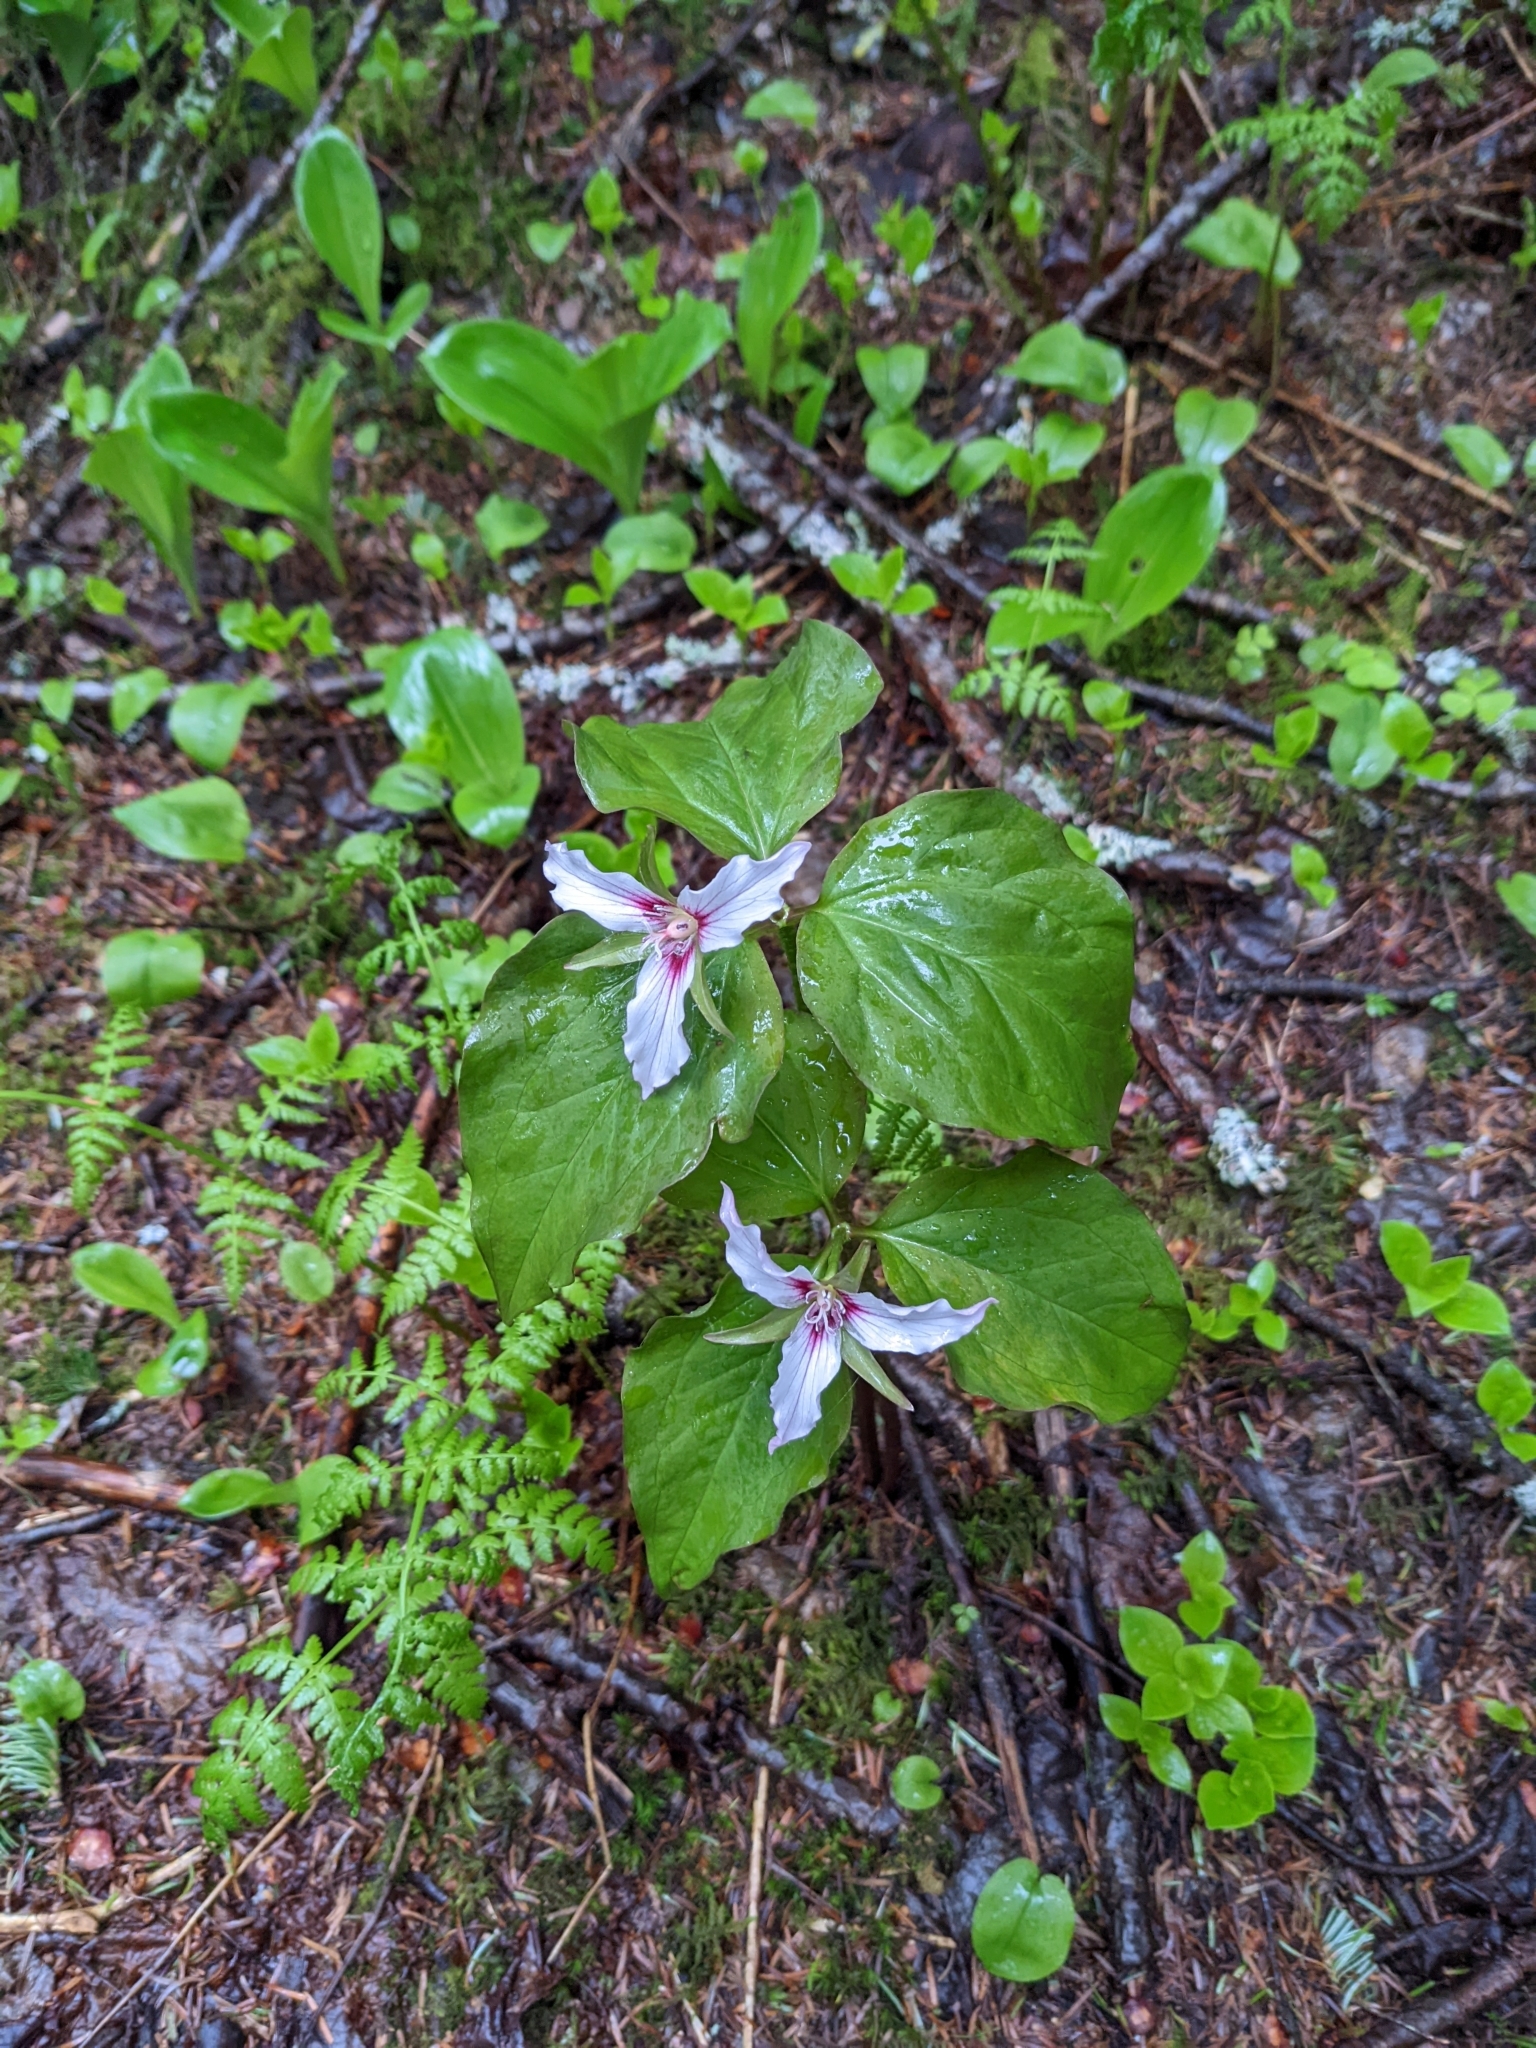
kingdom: Plantae
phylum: Tracheophyta
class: Liliopsida
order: Liliales
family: Melanthiaceae
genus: Trillium
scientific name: Trillium undulatum
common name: Paint trillium
